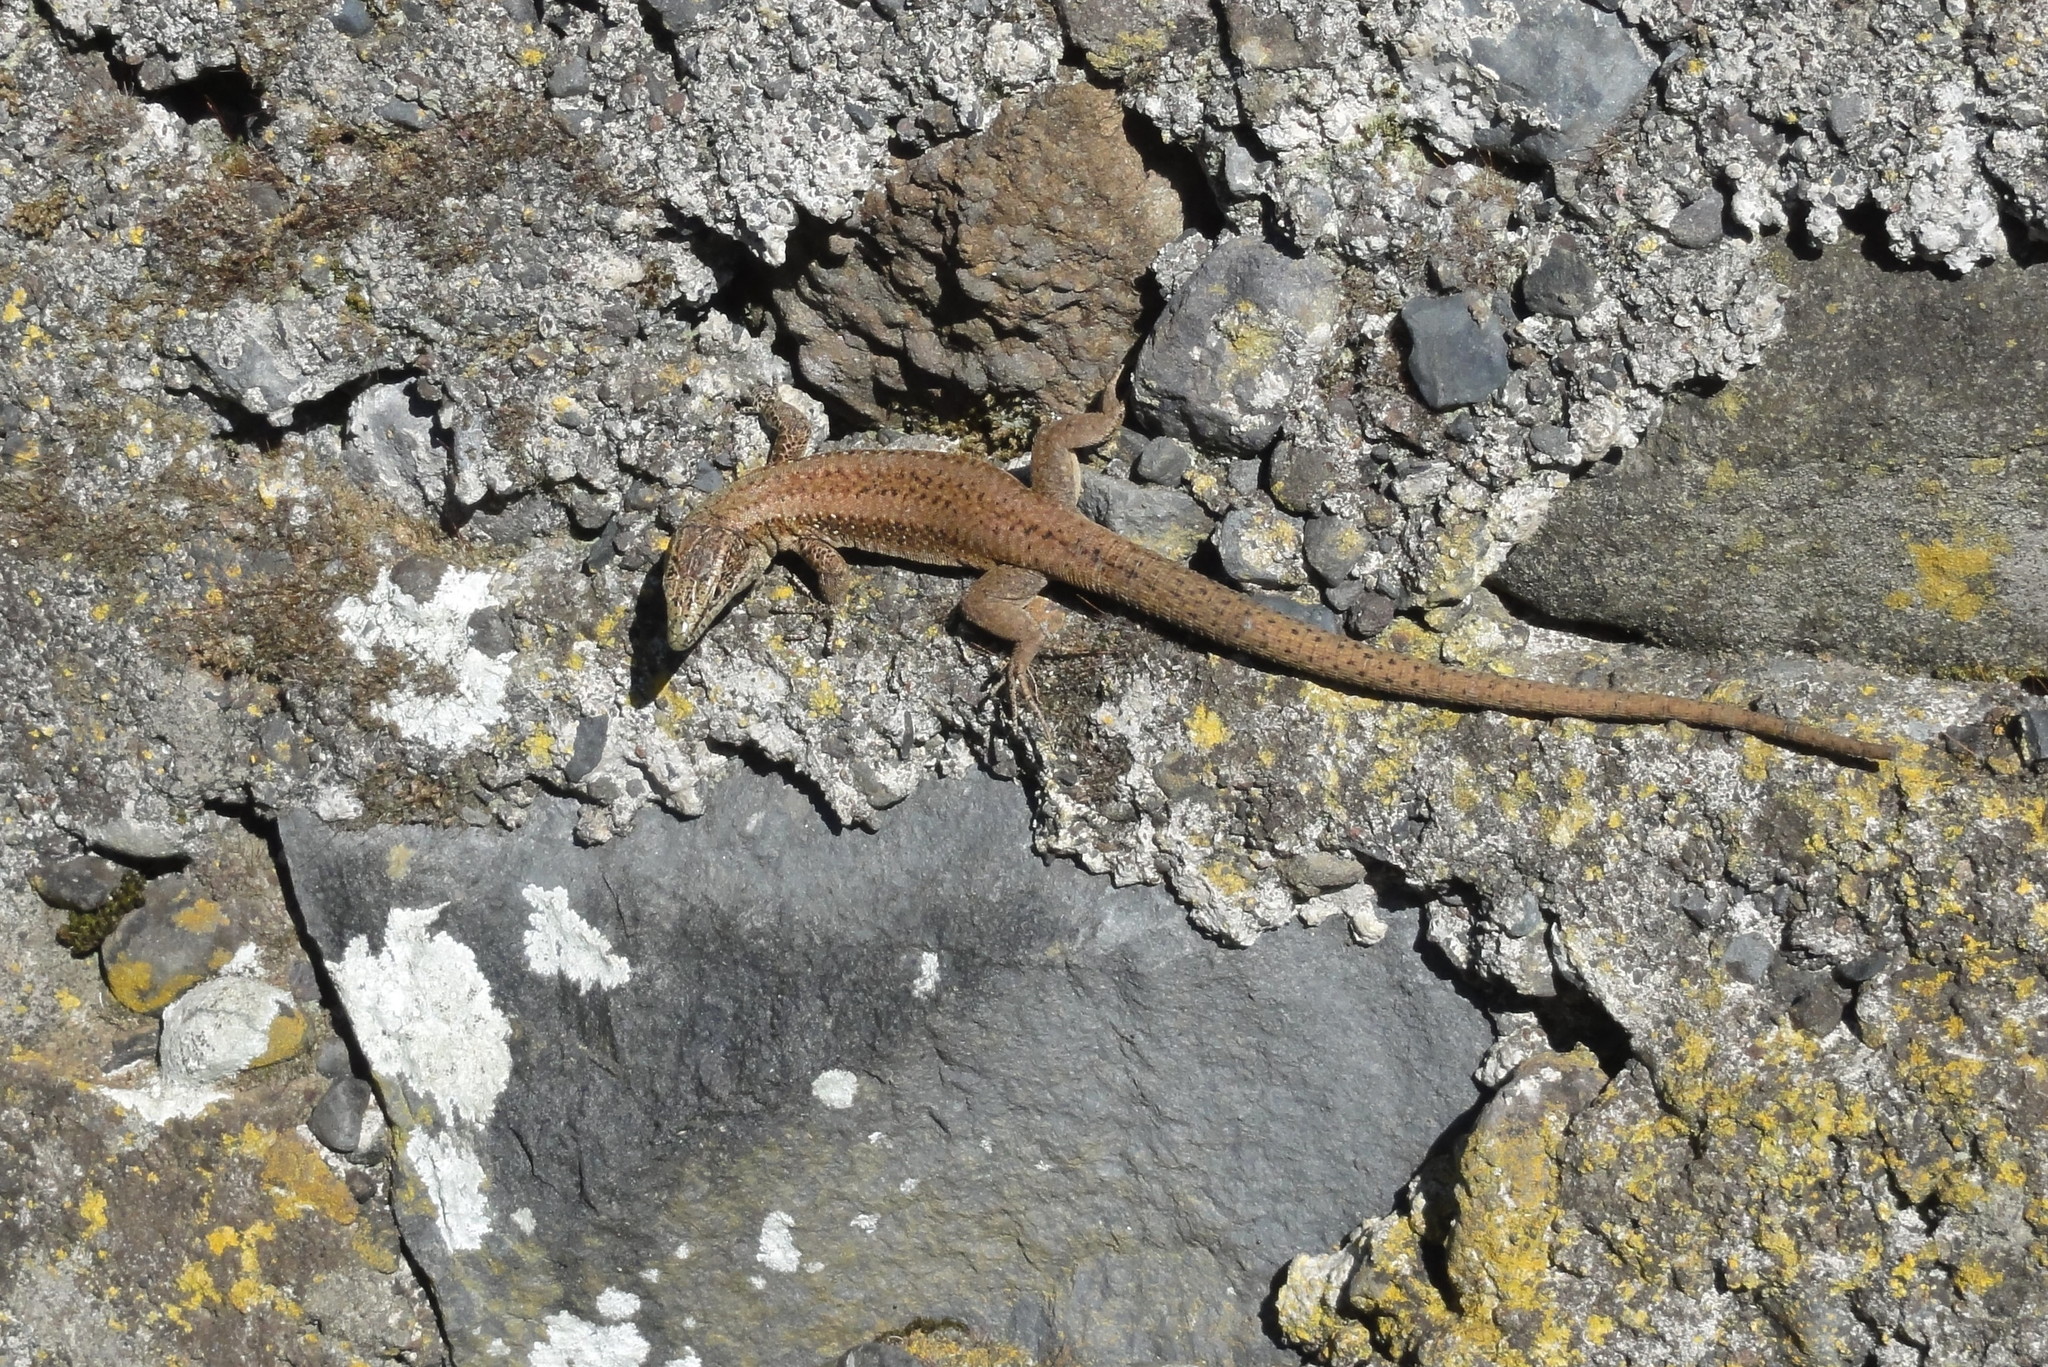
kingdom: Animalia
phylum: Chordata
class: Squamata
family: Lacertidae
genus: Teira
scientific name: Teira dugesii
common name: Madeira lizard
